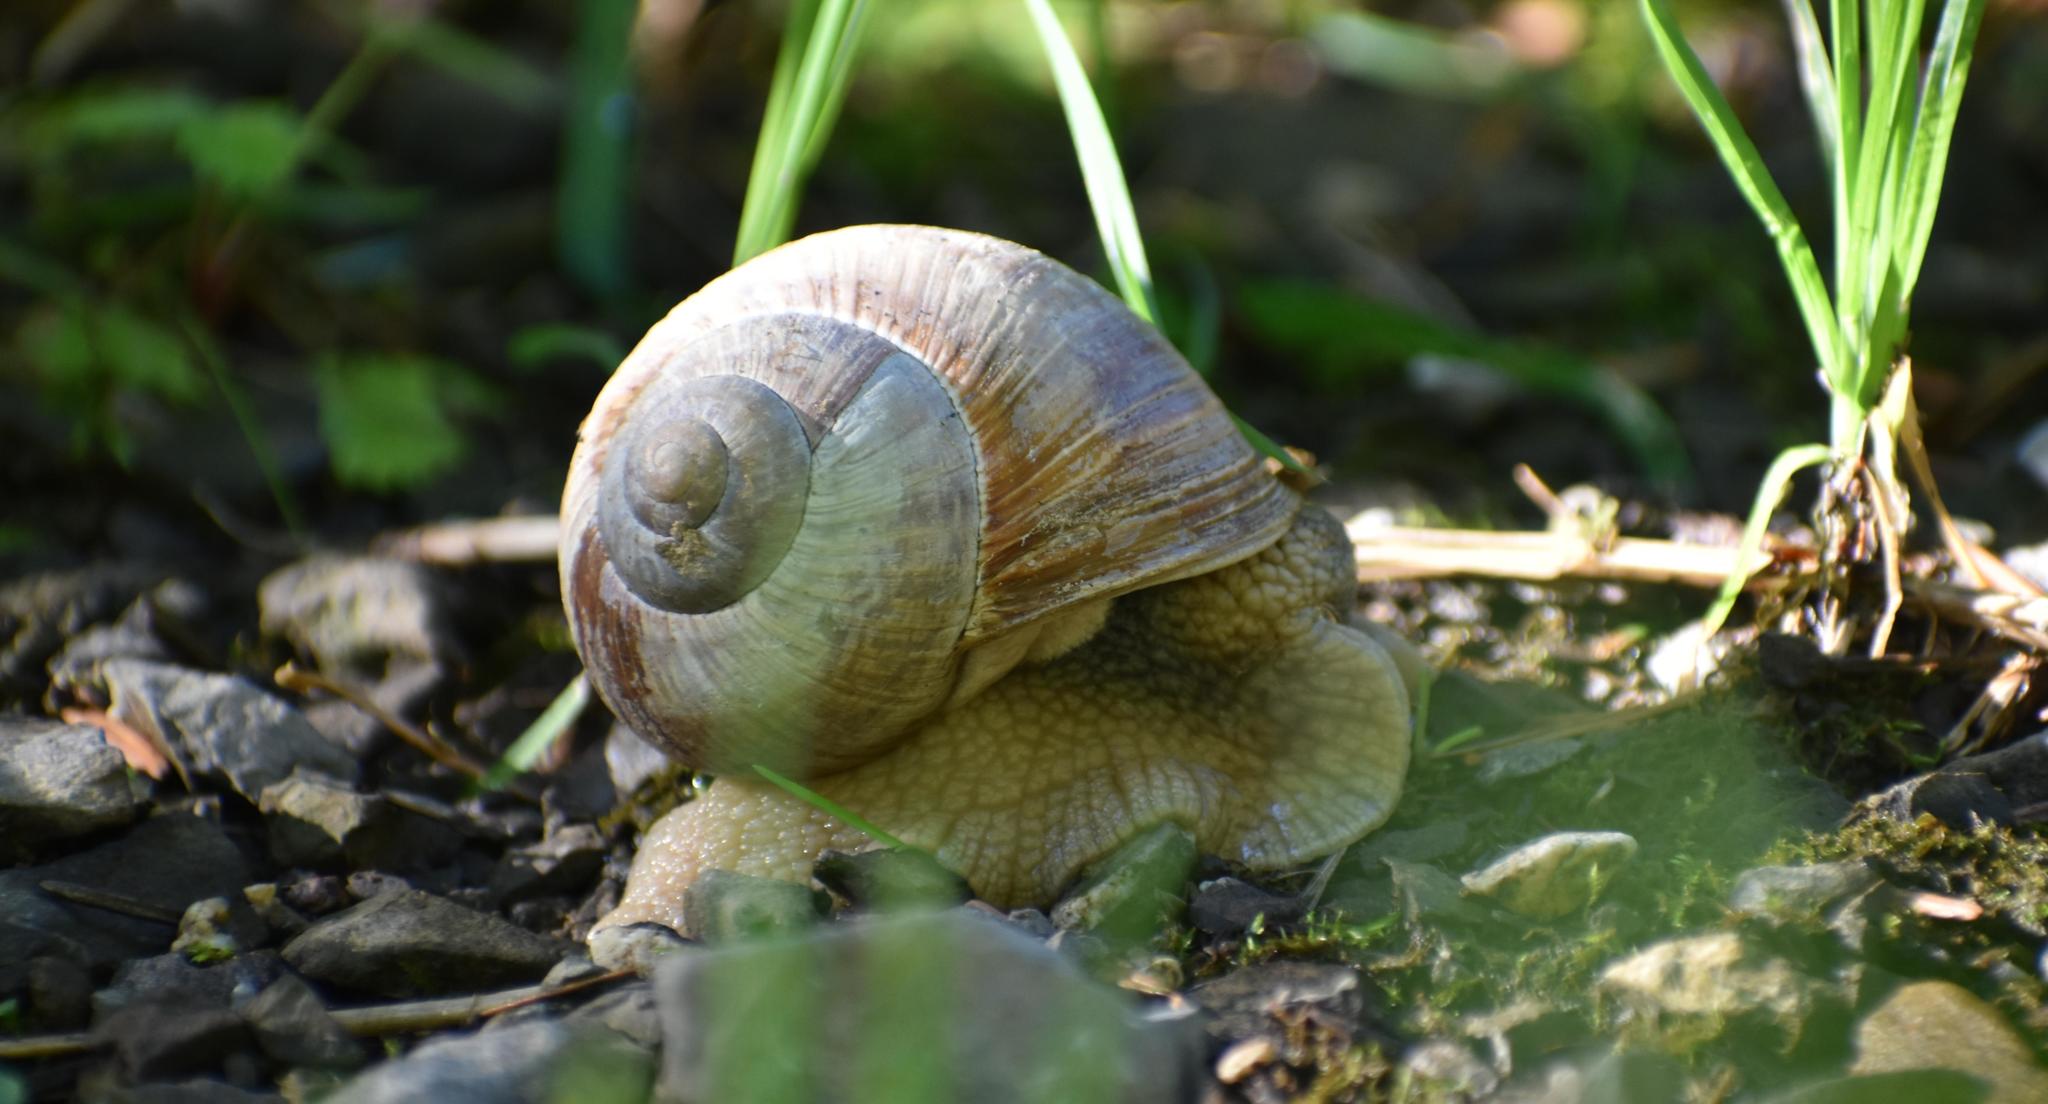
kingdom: Animalia
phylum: Mollusca
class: Gastropoda
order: Stylommatophora
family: Helicidae
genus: Helix
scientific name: Helix pomatia
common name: Roman snail
